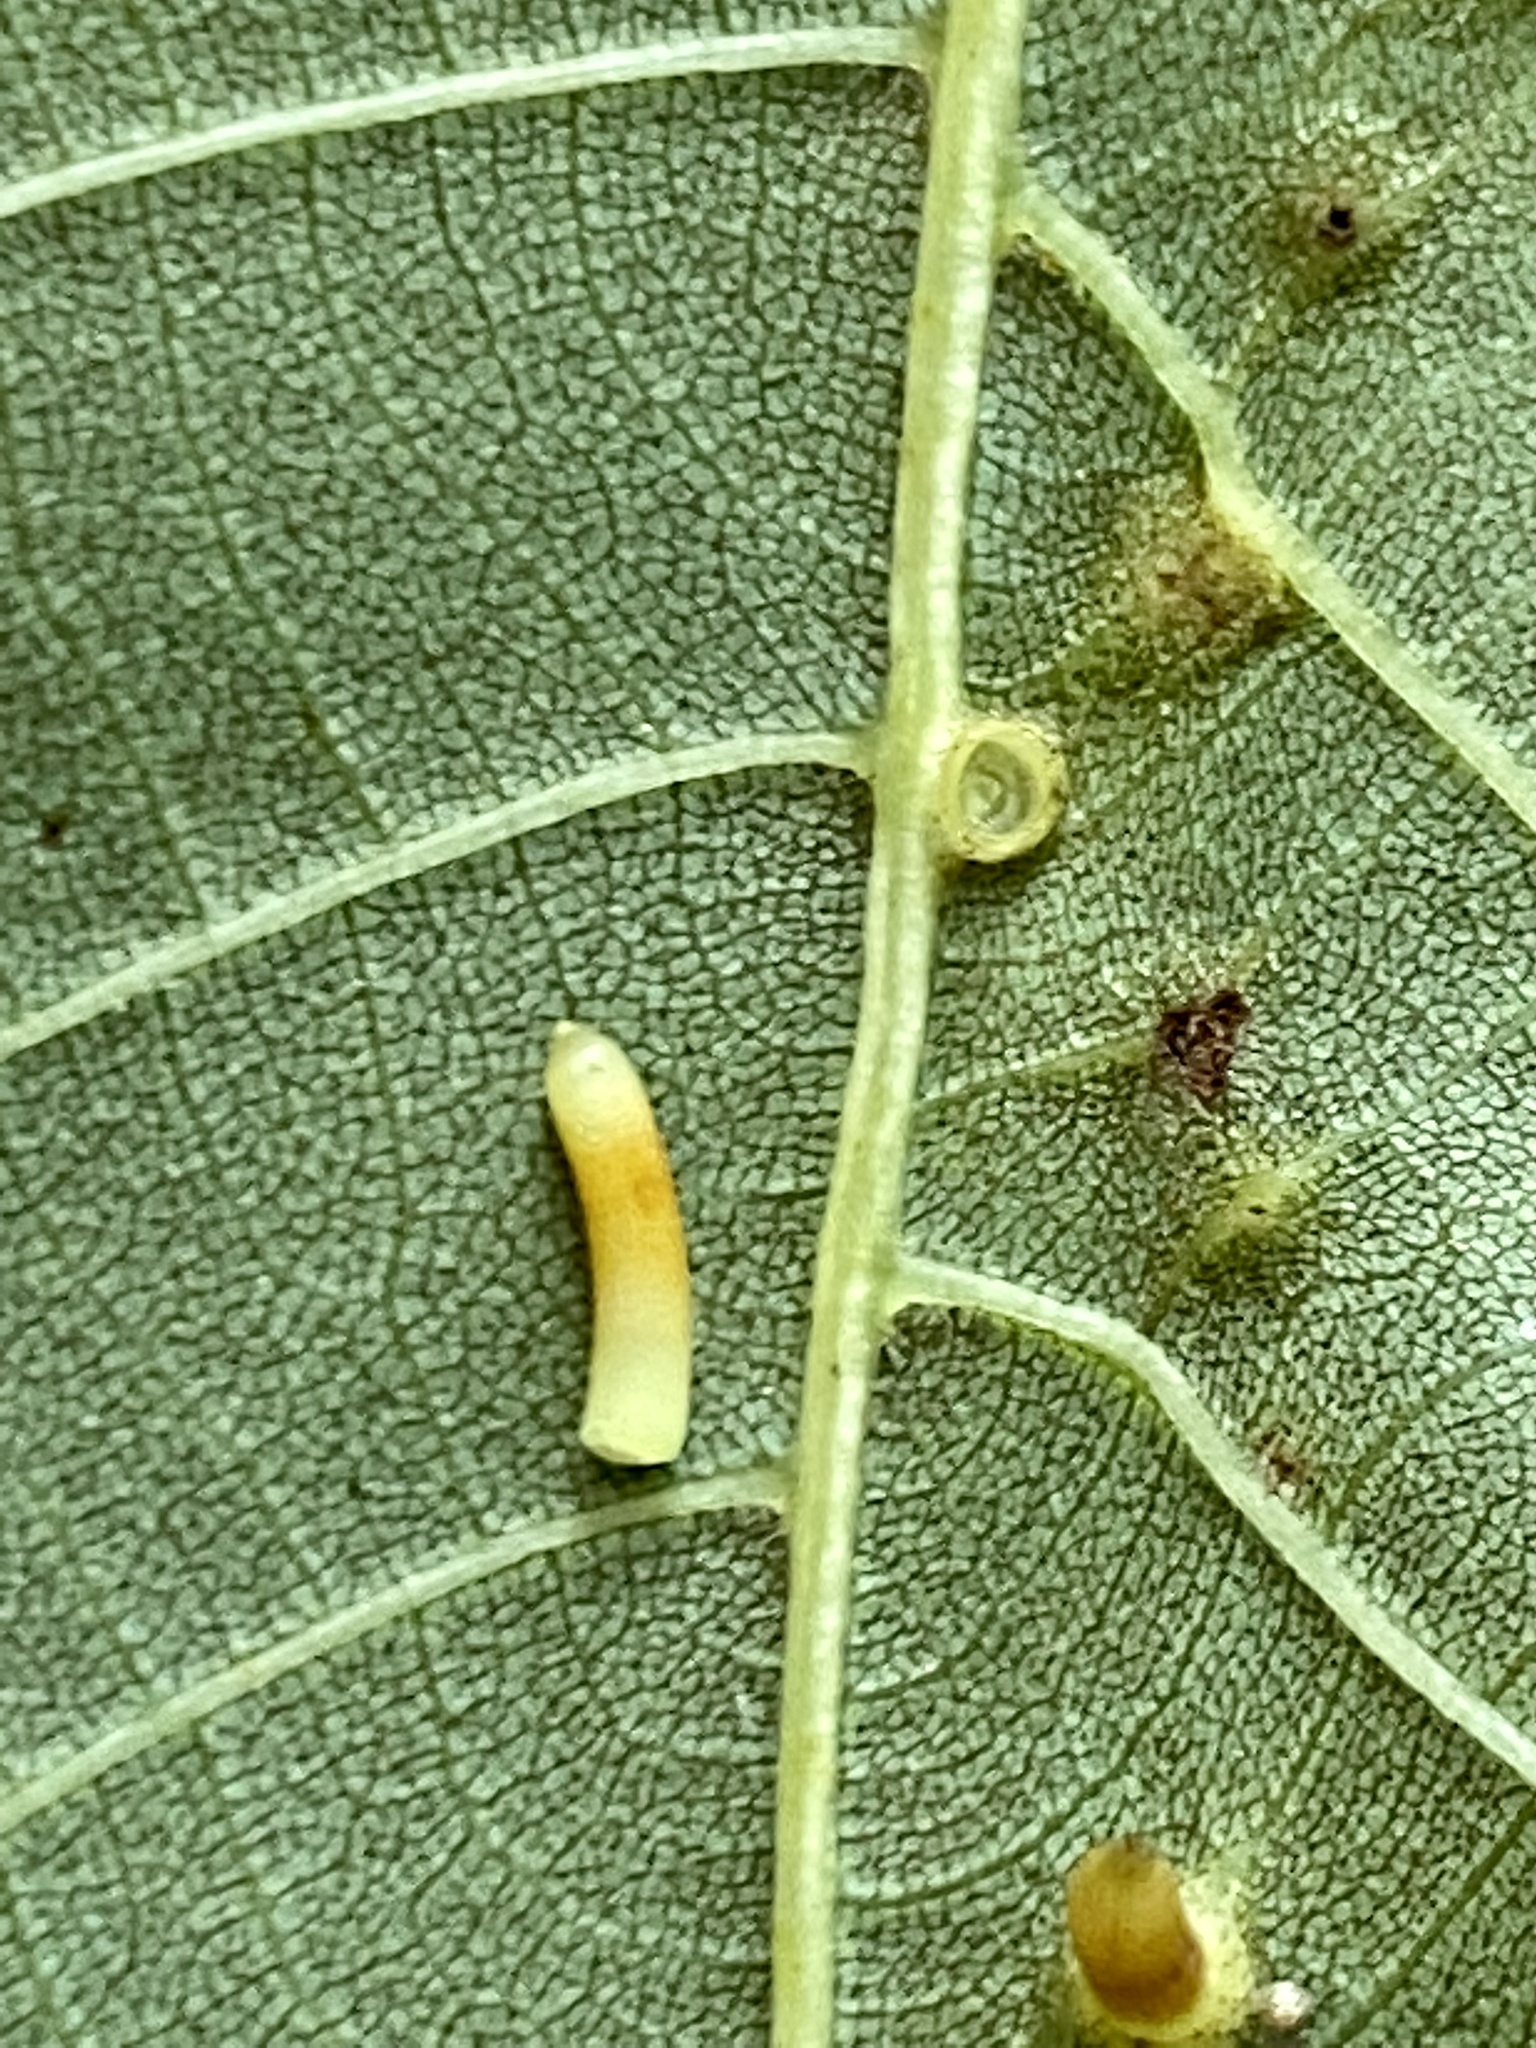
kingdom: Animalia
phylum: Arthropoda
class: Insecta
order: Diptera
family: Cecidomyiidae
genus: Caryomyia
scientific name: Caryomyia tubicola
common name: Hickory bullet gall midge
